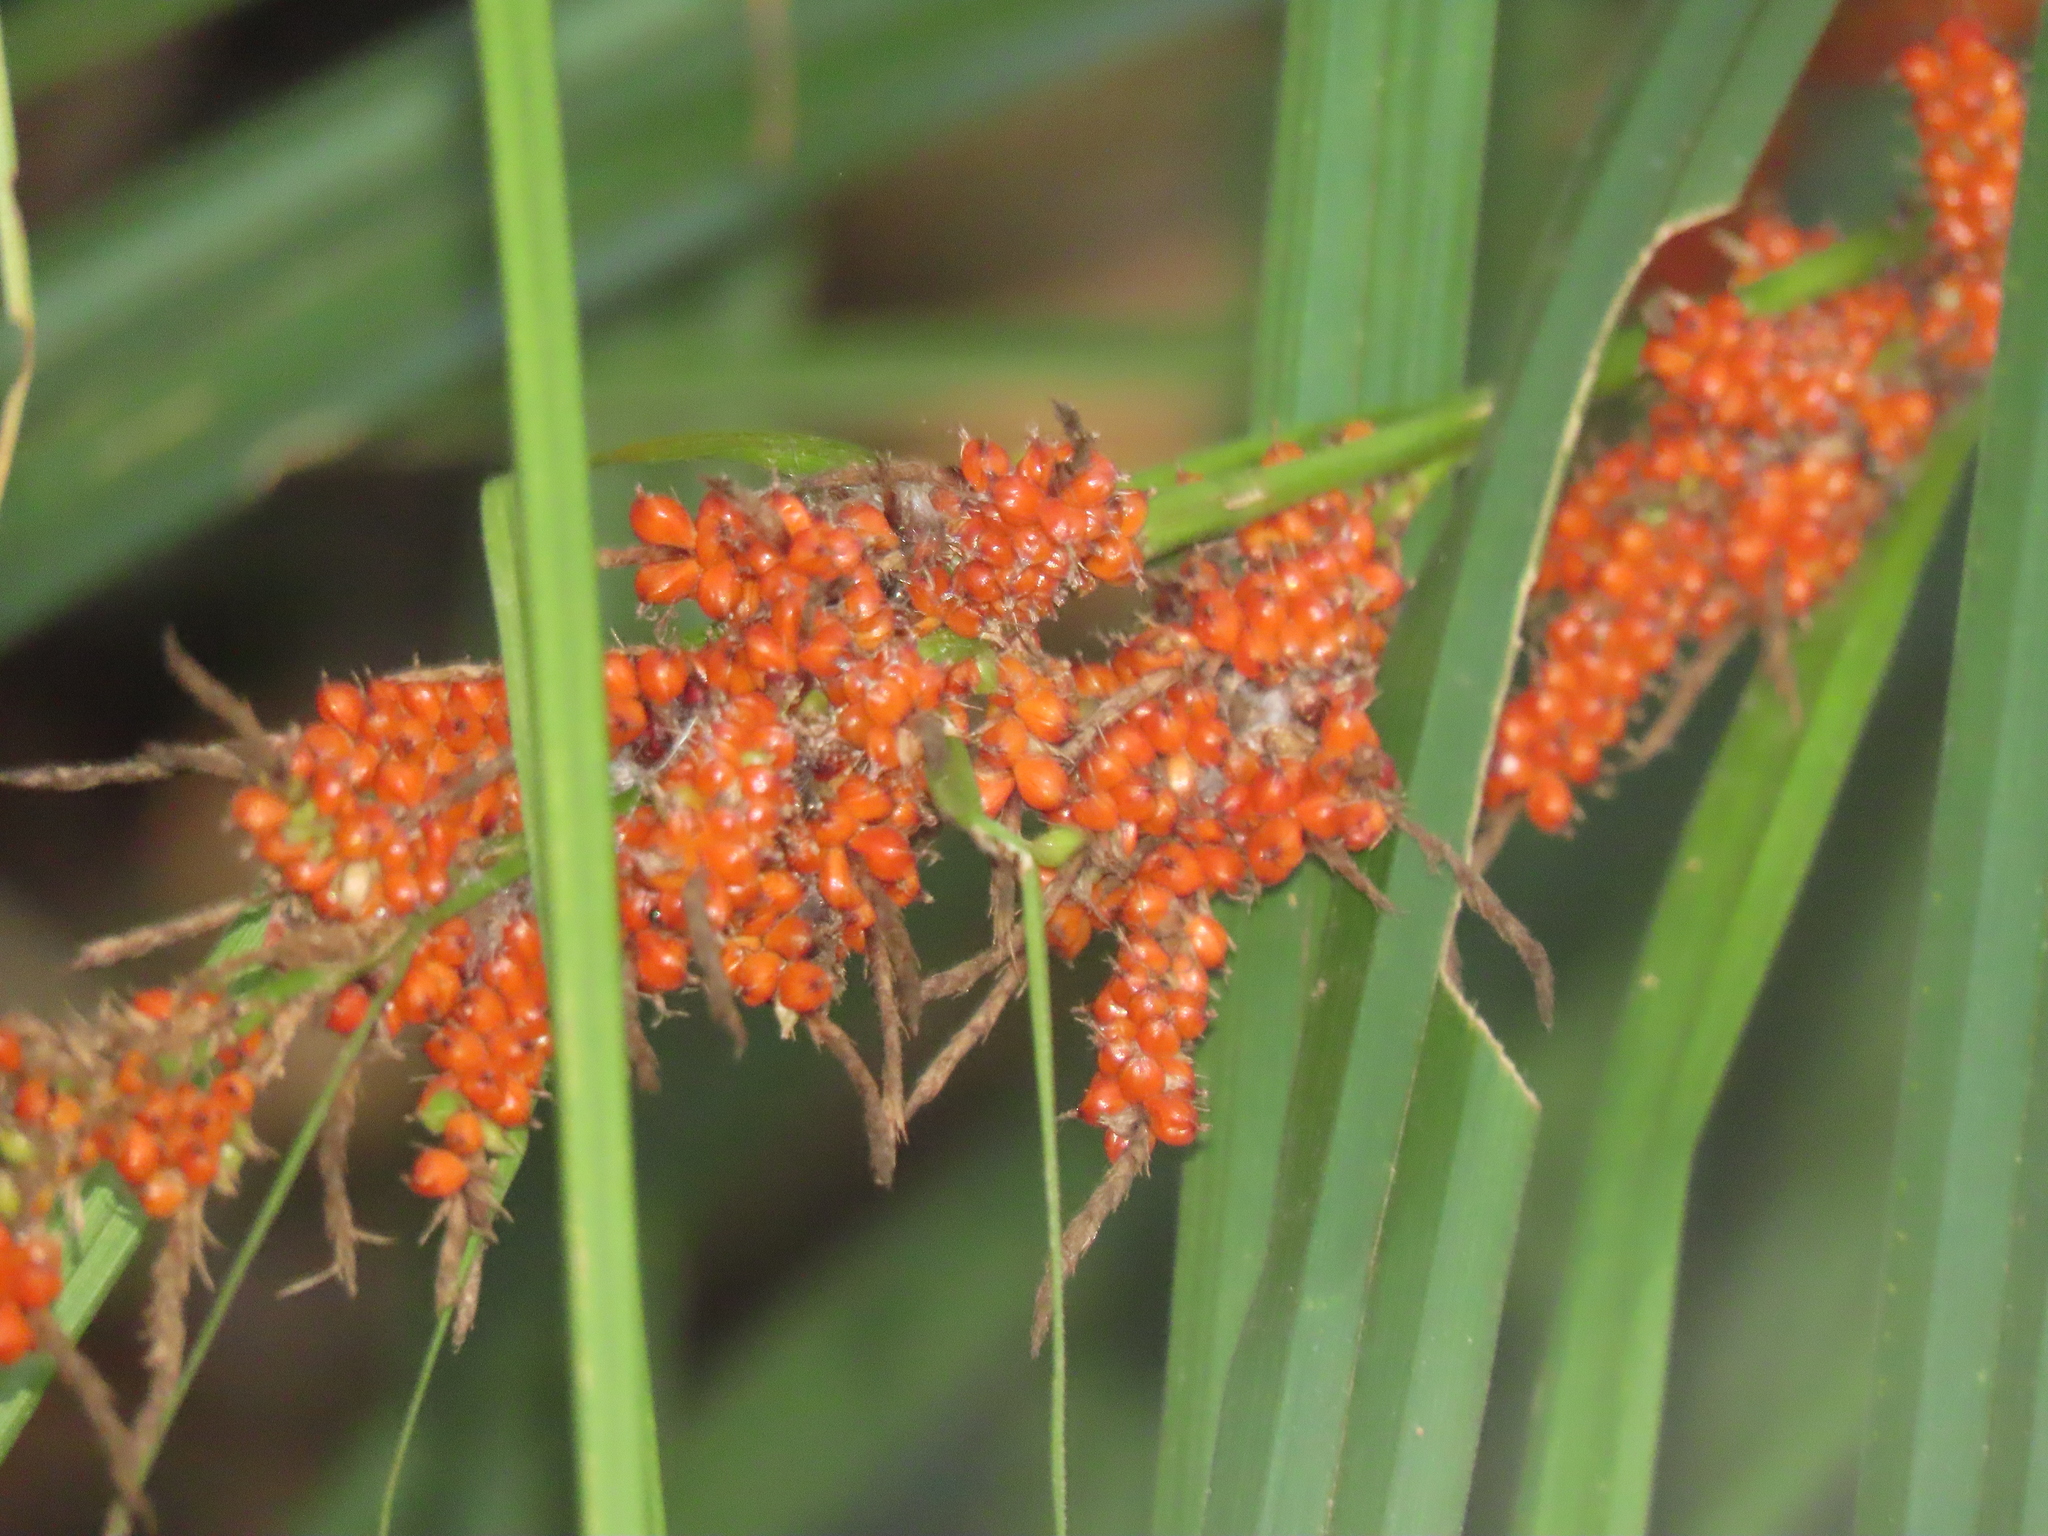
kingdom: Plantae
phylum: Tracheophyta
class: Liliopsida
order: Poales
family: Cyperaceae
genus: Carex
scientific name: Carex baccans
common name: Crimson seeded sedge
